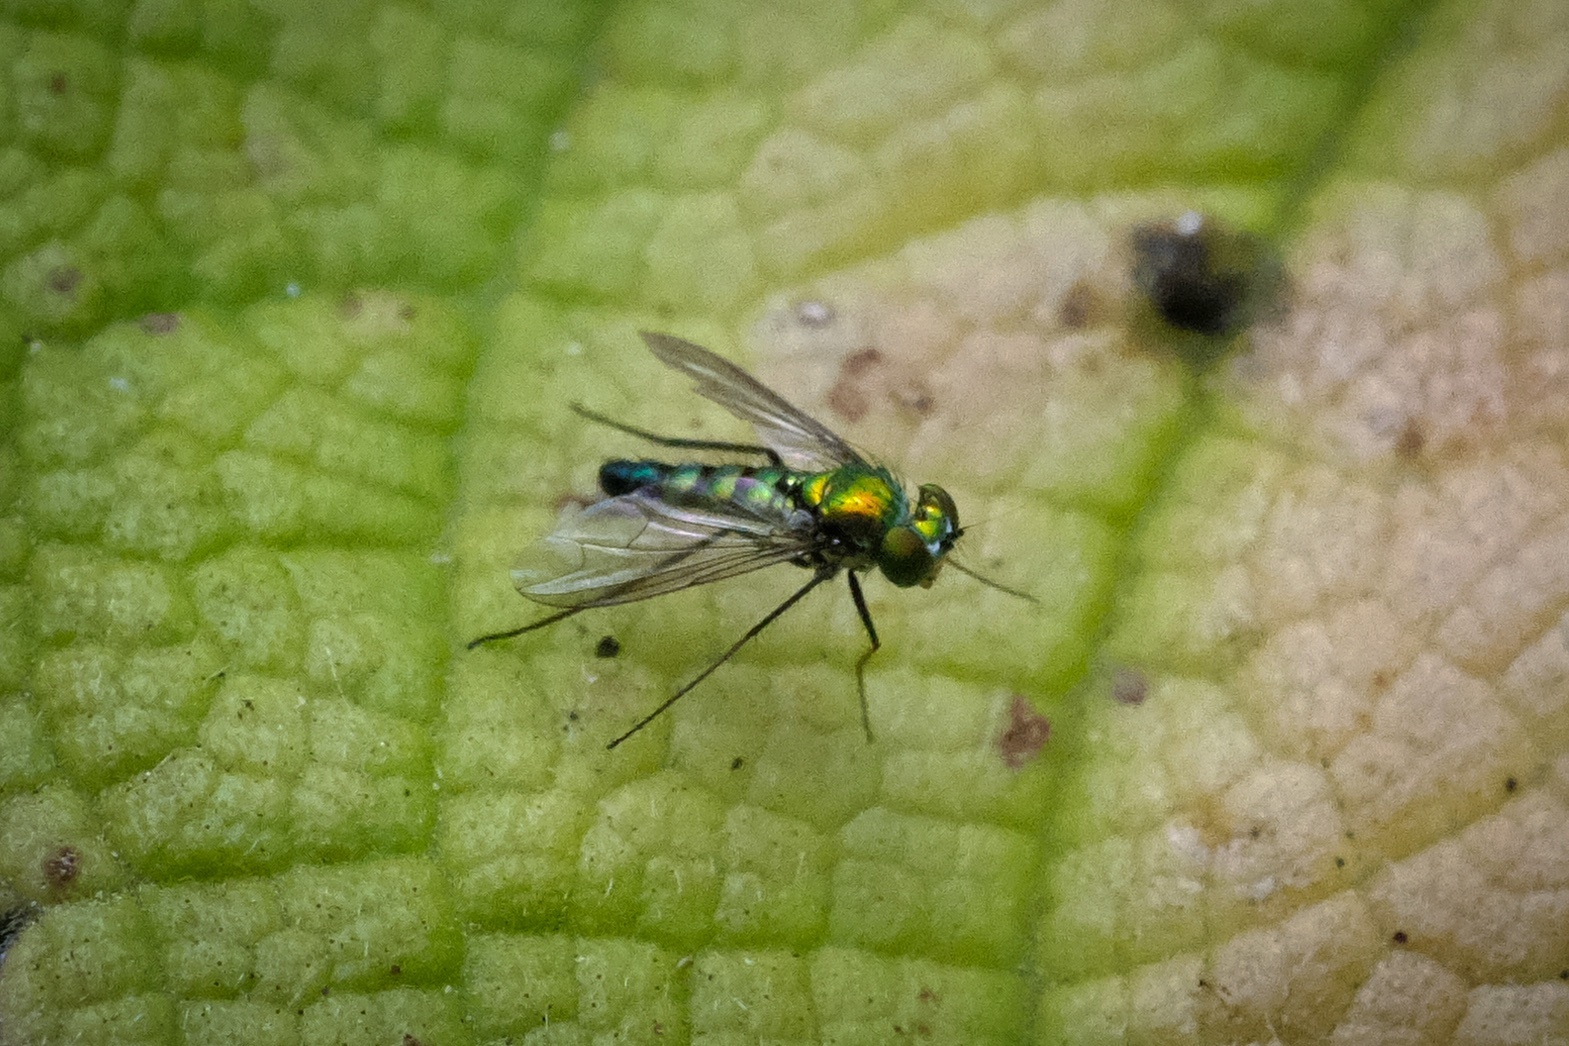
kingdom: Animalia
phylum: Arthropoda
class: Insecta
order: Diptera
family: Dolichopodidae
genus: Condylostylus
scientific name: Condylostylus longicornis
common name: Long-legged fly
